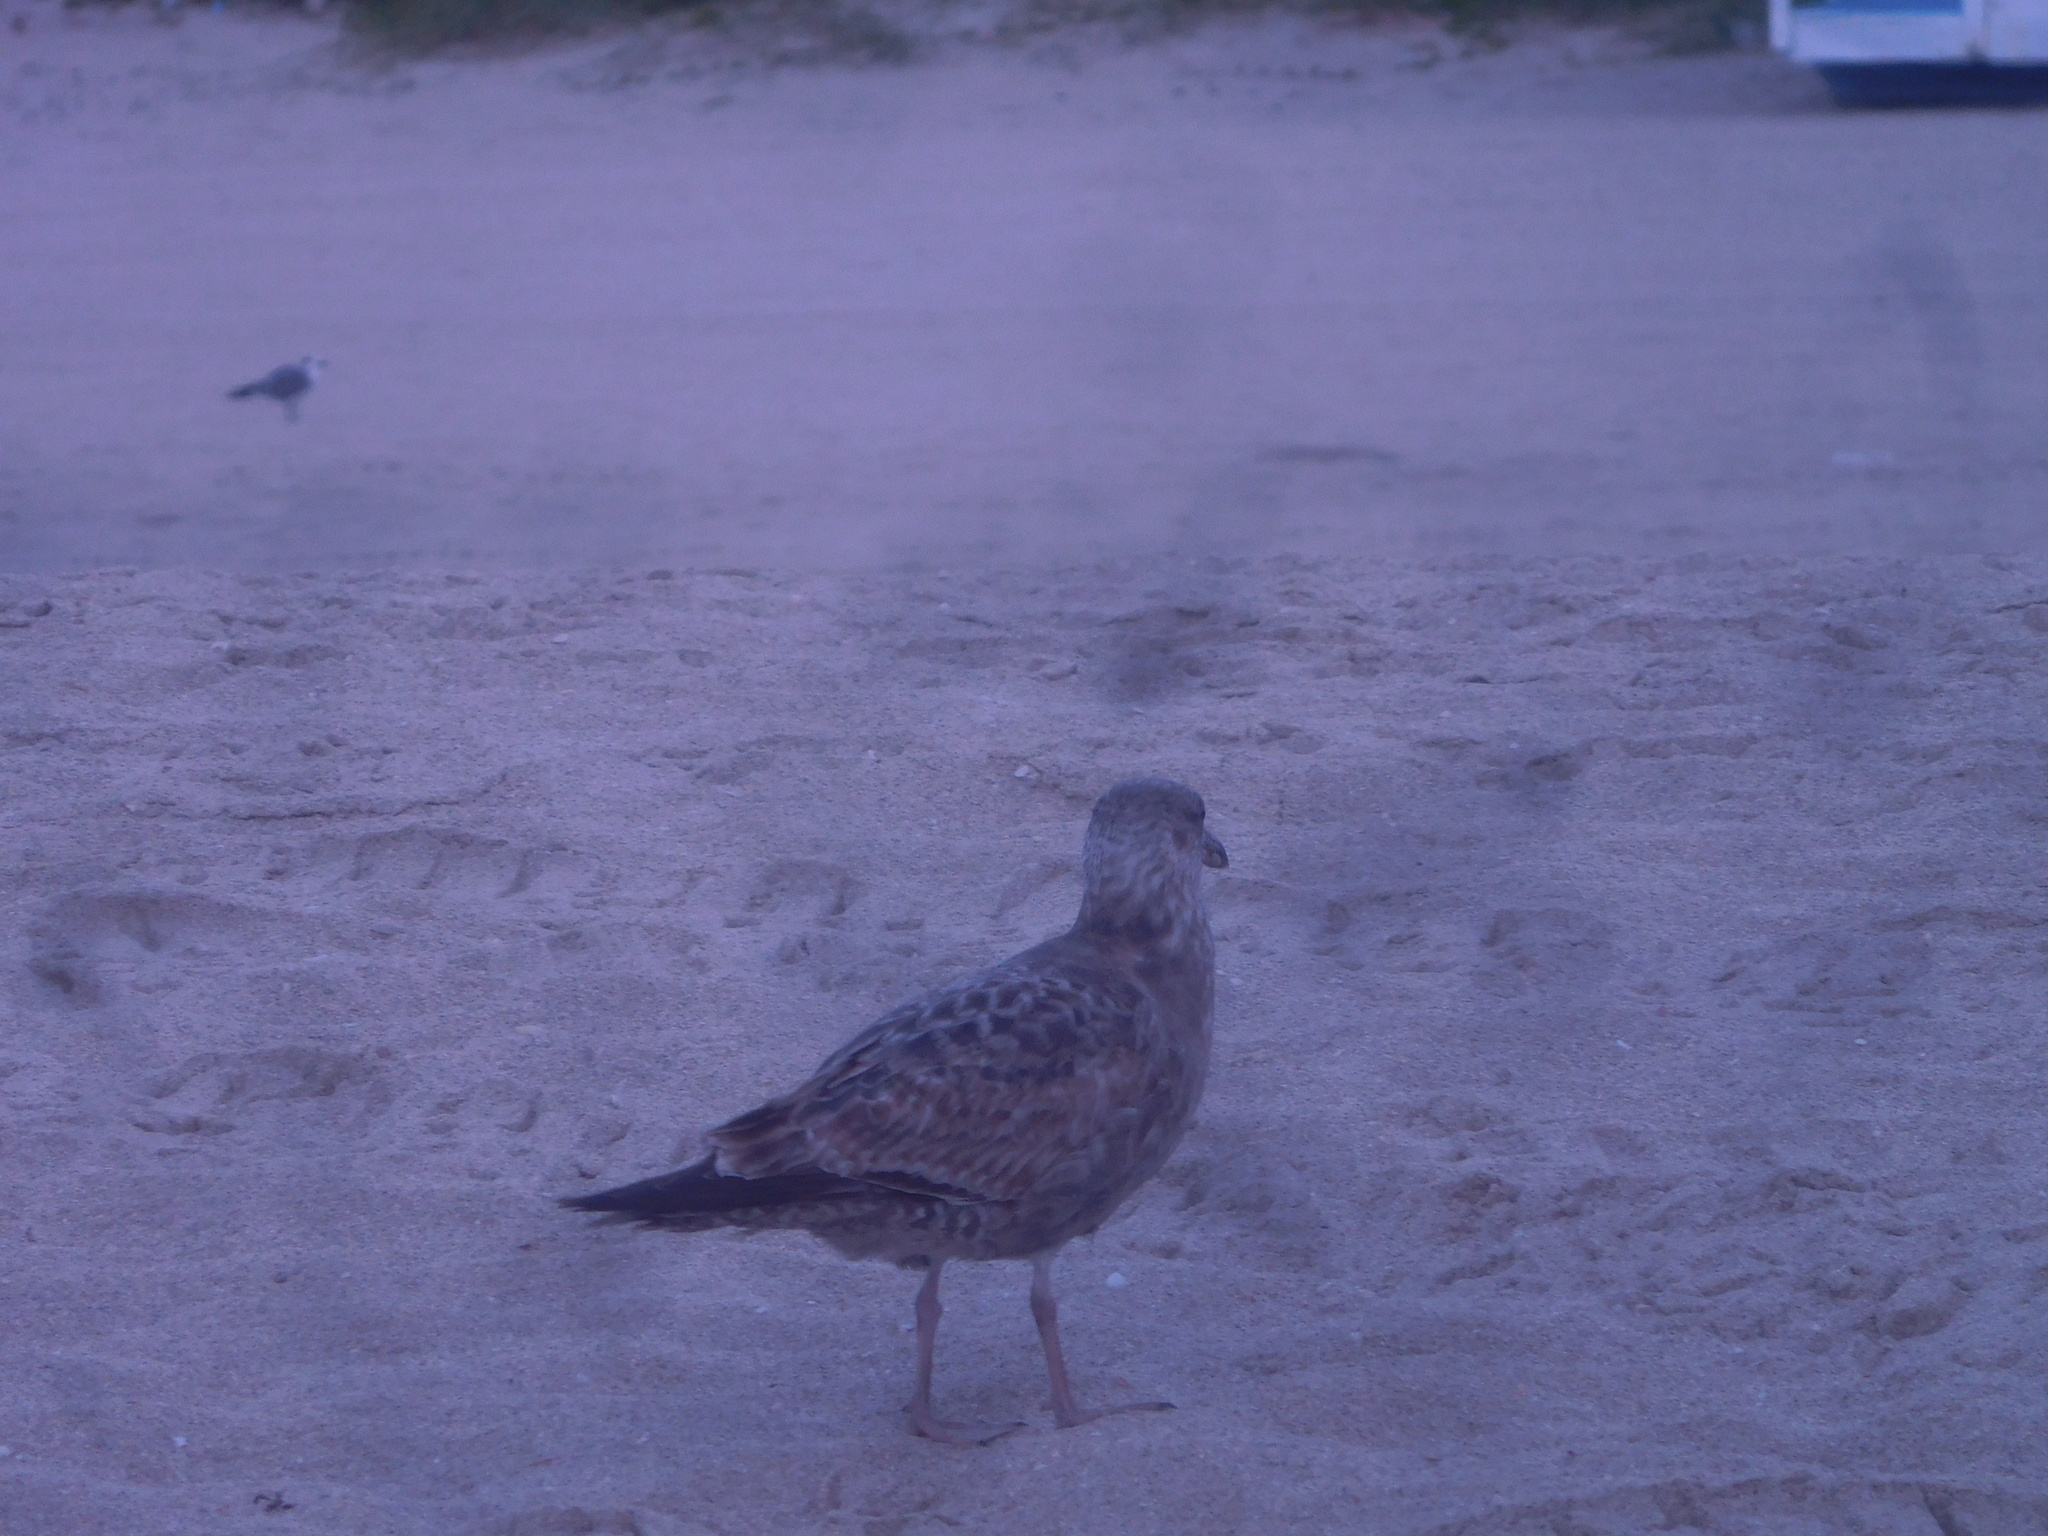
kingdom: Animalia
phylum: Chordata
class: Aves
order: Charadriiformes
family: Laridae
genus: Larus
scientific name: Larus argentatus
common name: Herring gull
